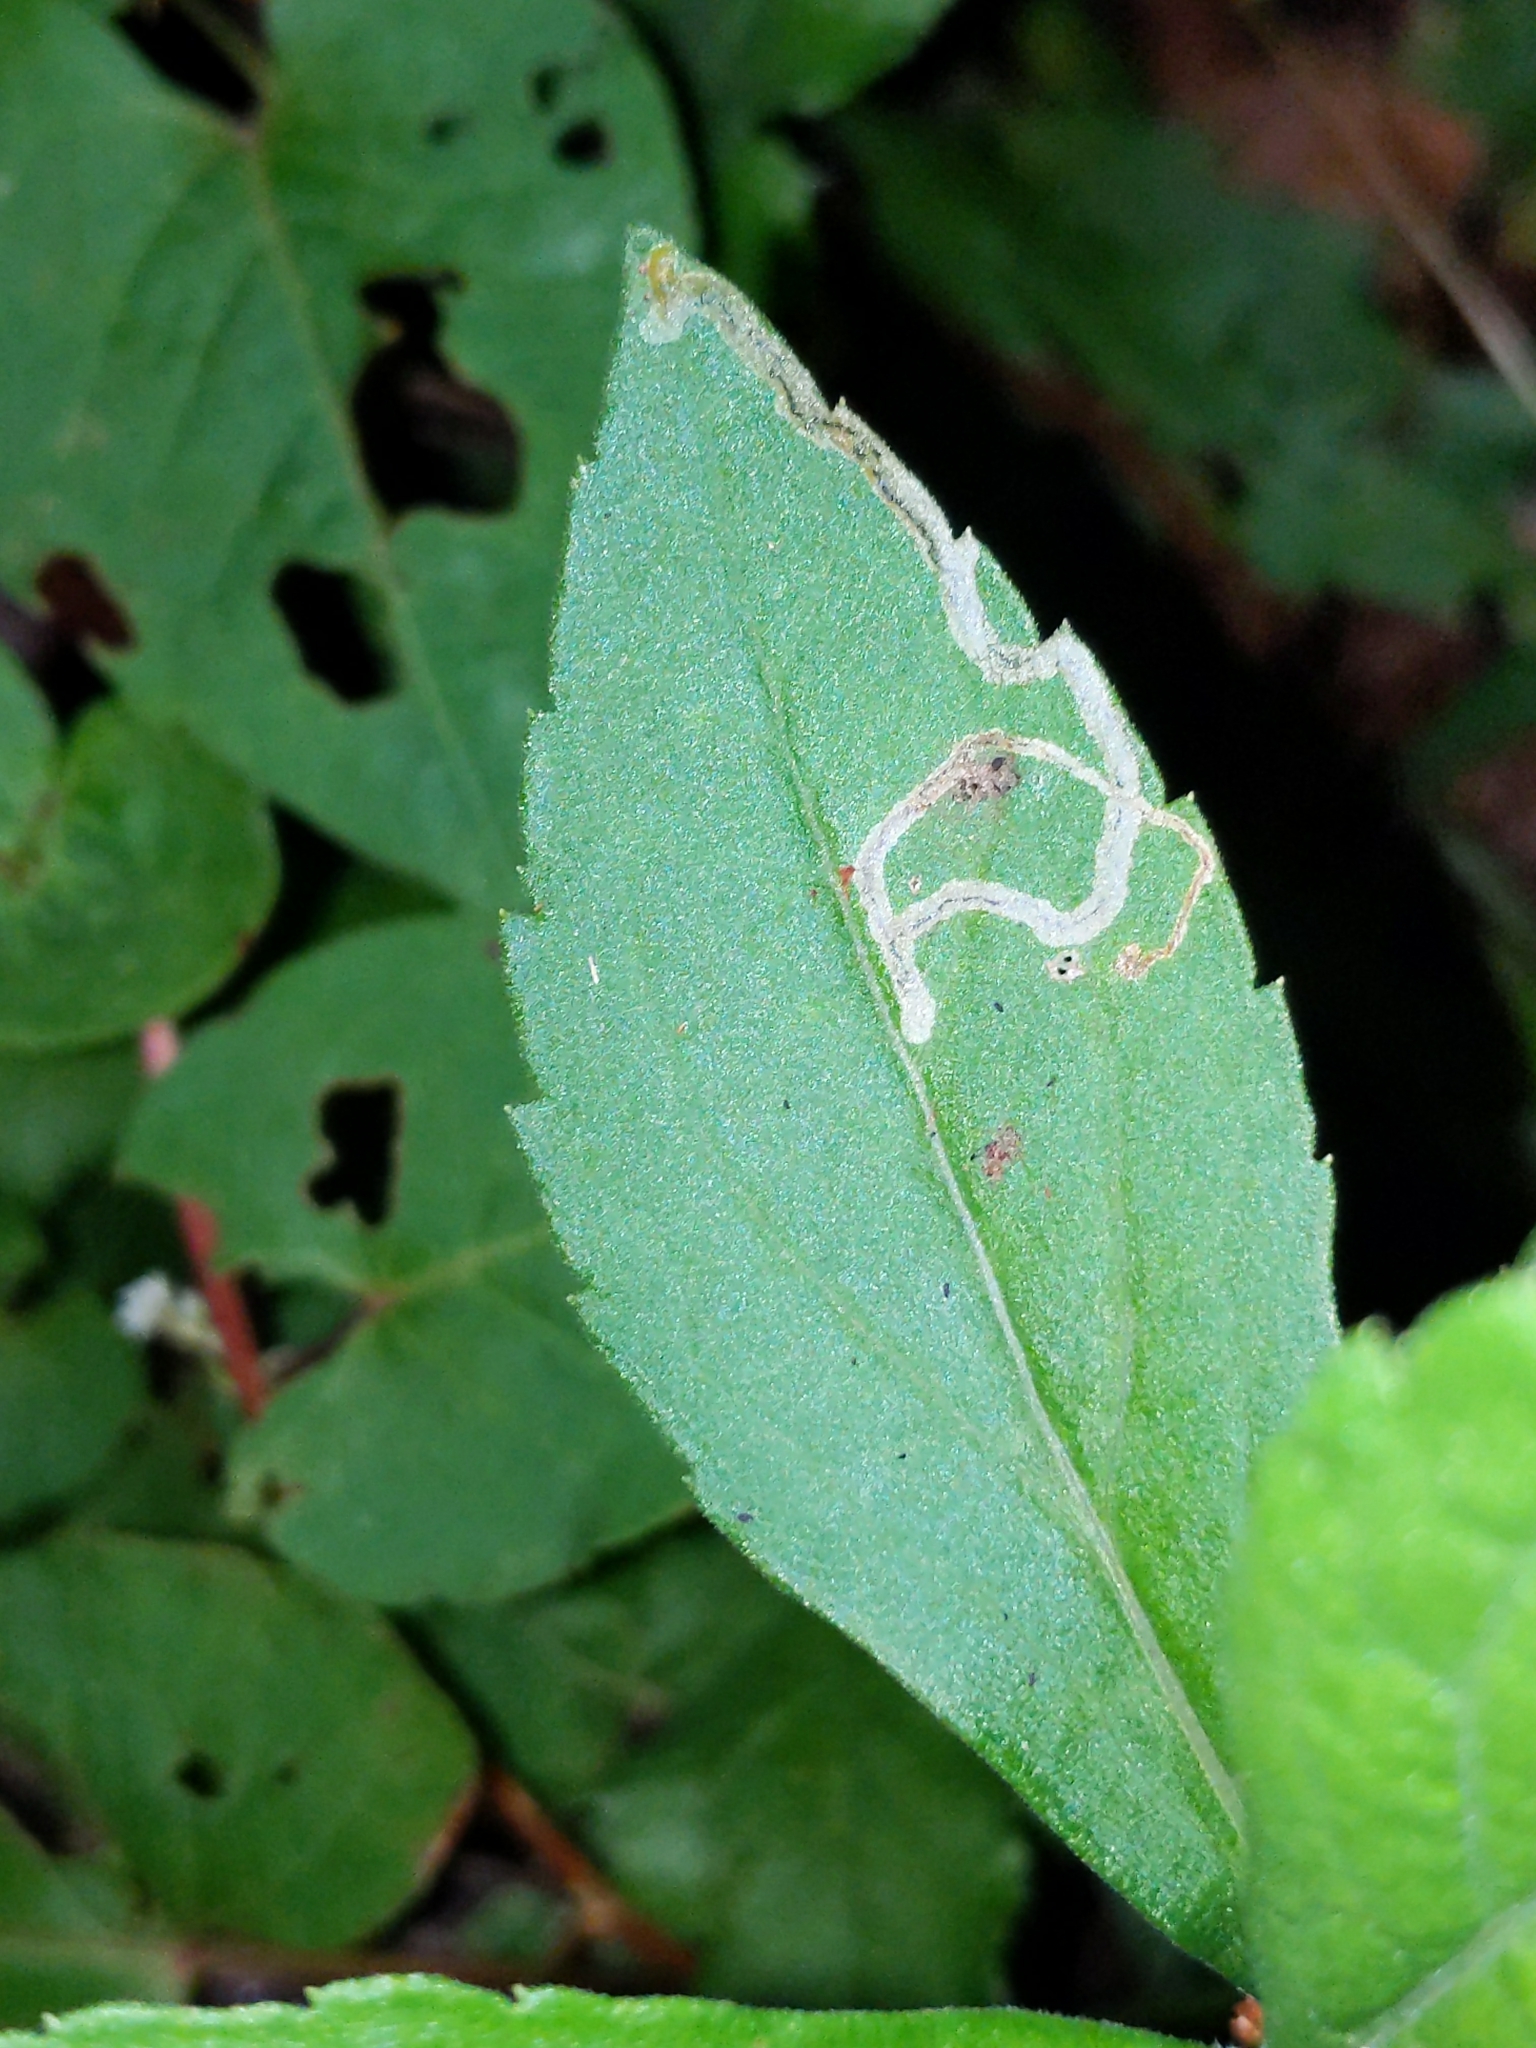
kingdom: Animalia
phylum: Arthropoda
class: Insecta
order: Diptera
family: Agromyzidae
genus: Liriomyza
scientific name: Liriomyza eupatorii
